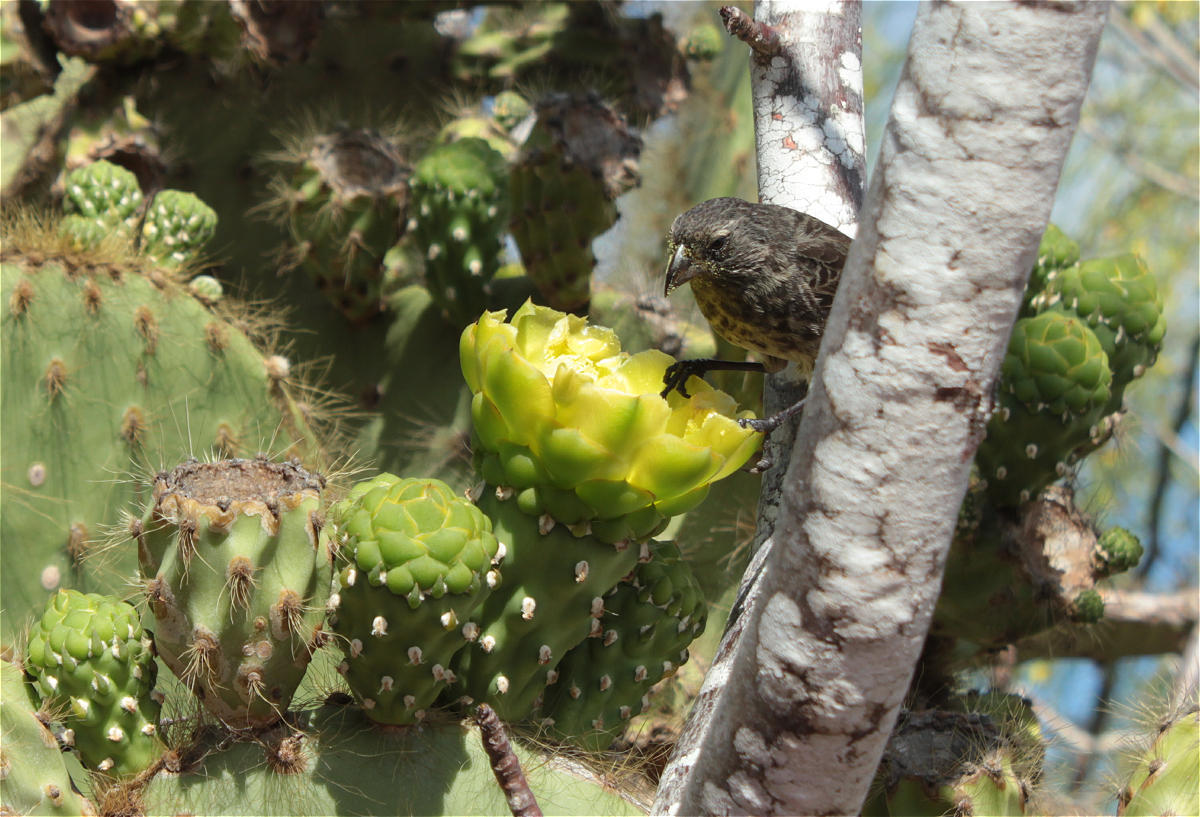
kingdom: Animalia
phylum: Chordata
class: Aves
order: Passeriformes
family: Thraupidae
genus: Geospiza
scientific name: Geospiza scandens
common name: Common cactus-finch
